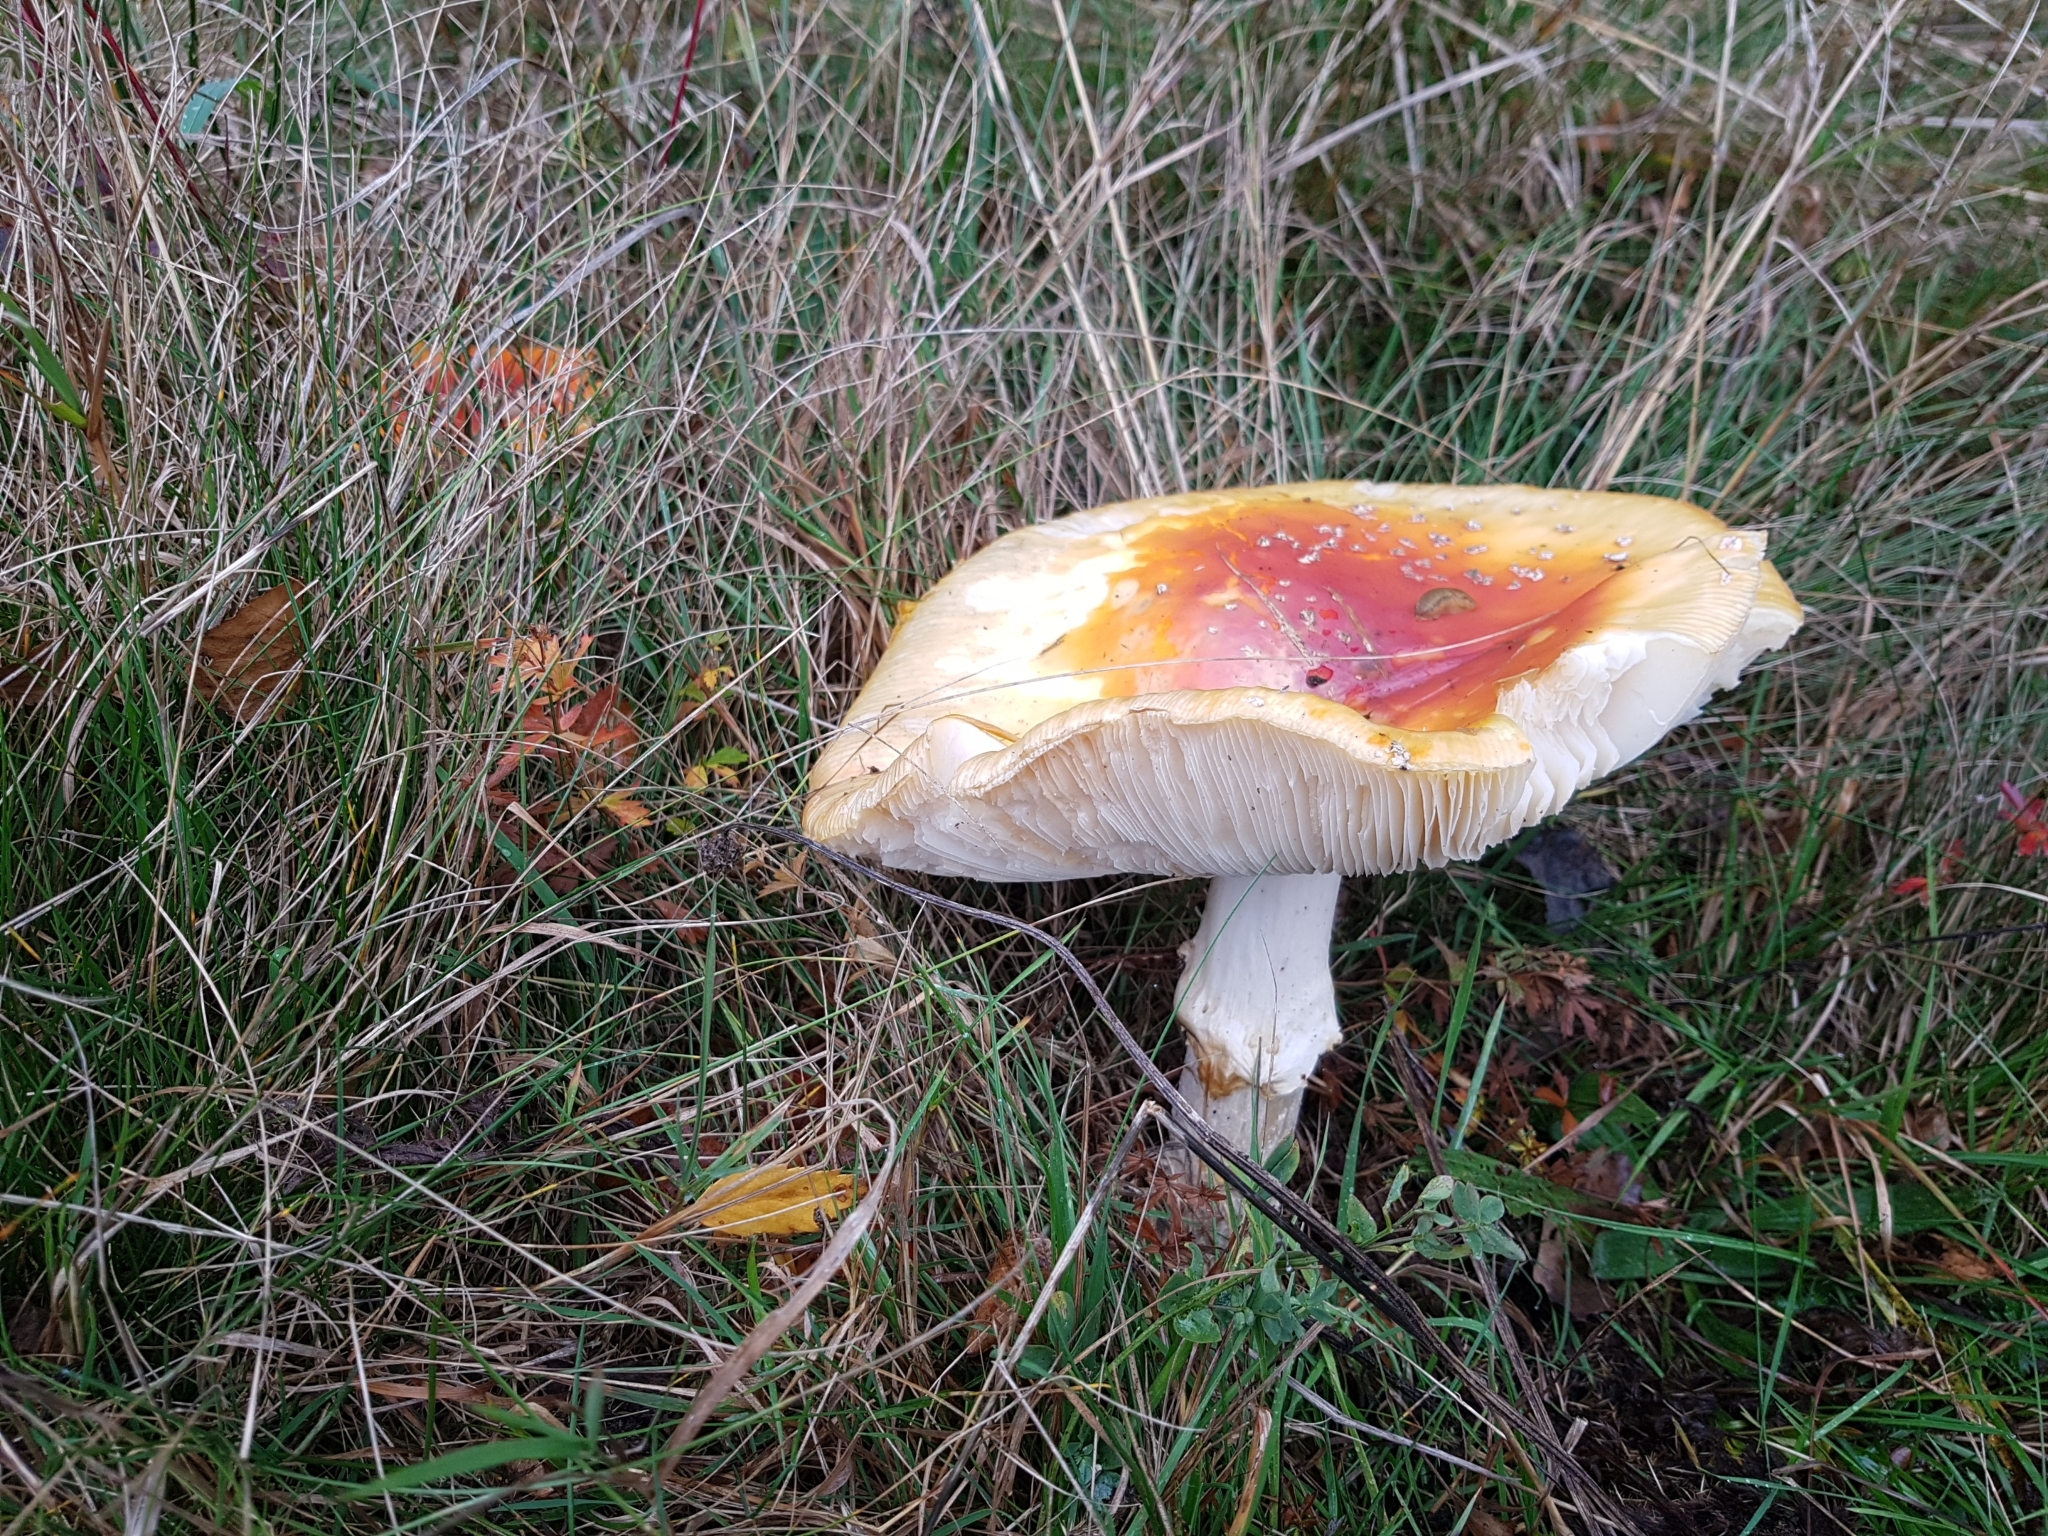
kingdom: Fungi
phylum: Basidiomycota
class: Agaricomycetes
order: Agaricales
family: Amanitaceae
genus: Amanita
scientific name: Amanita muscaria
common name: Fly agaric
